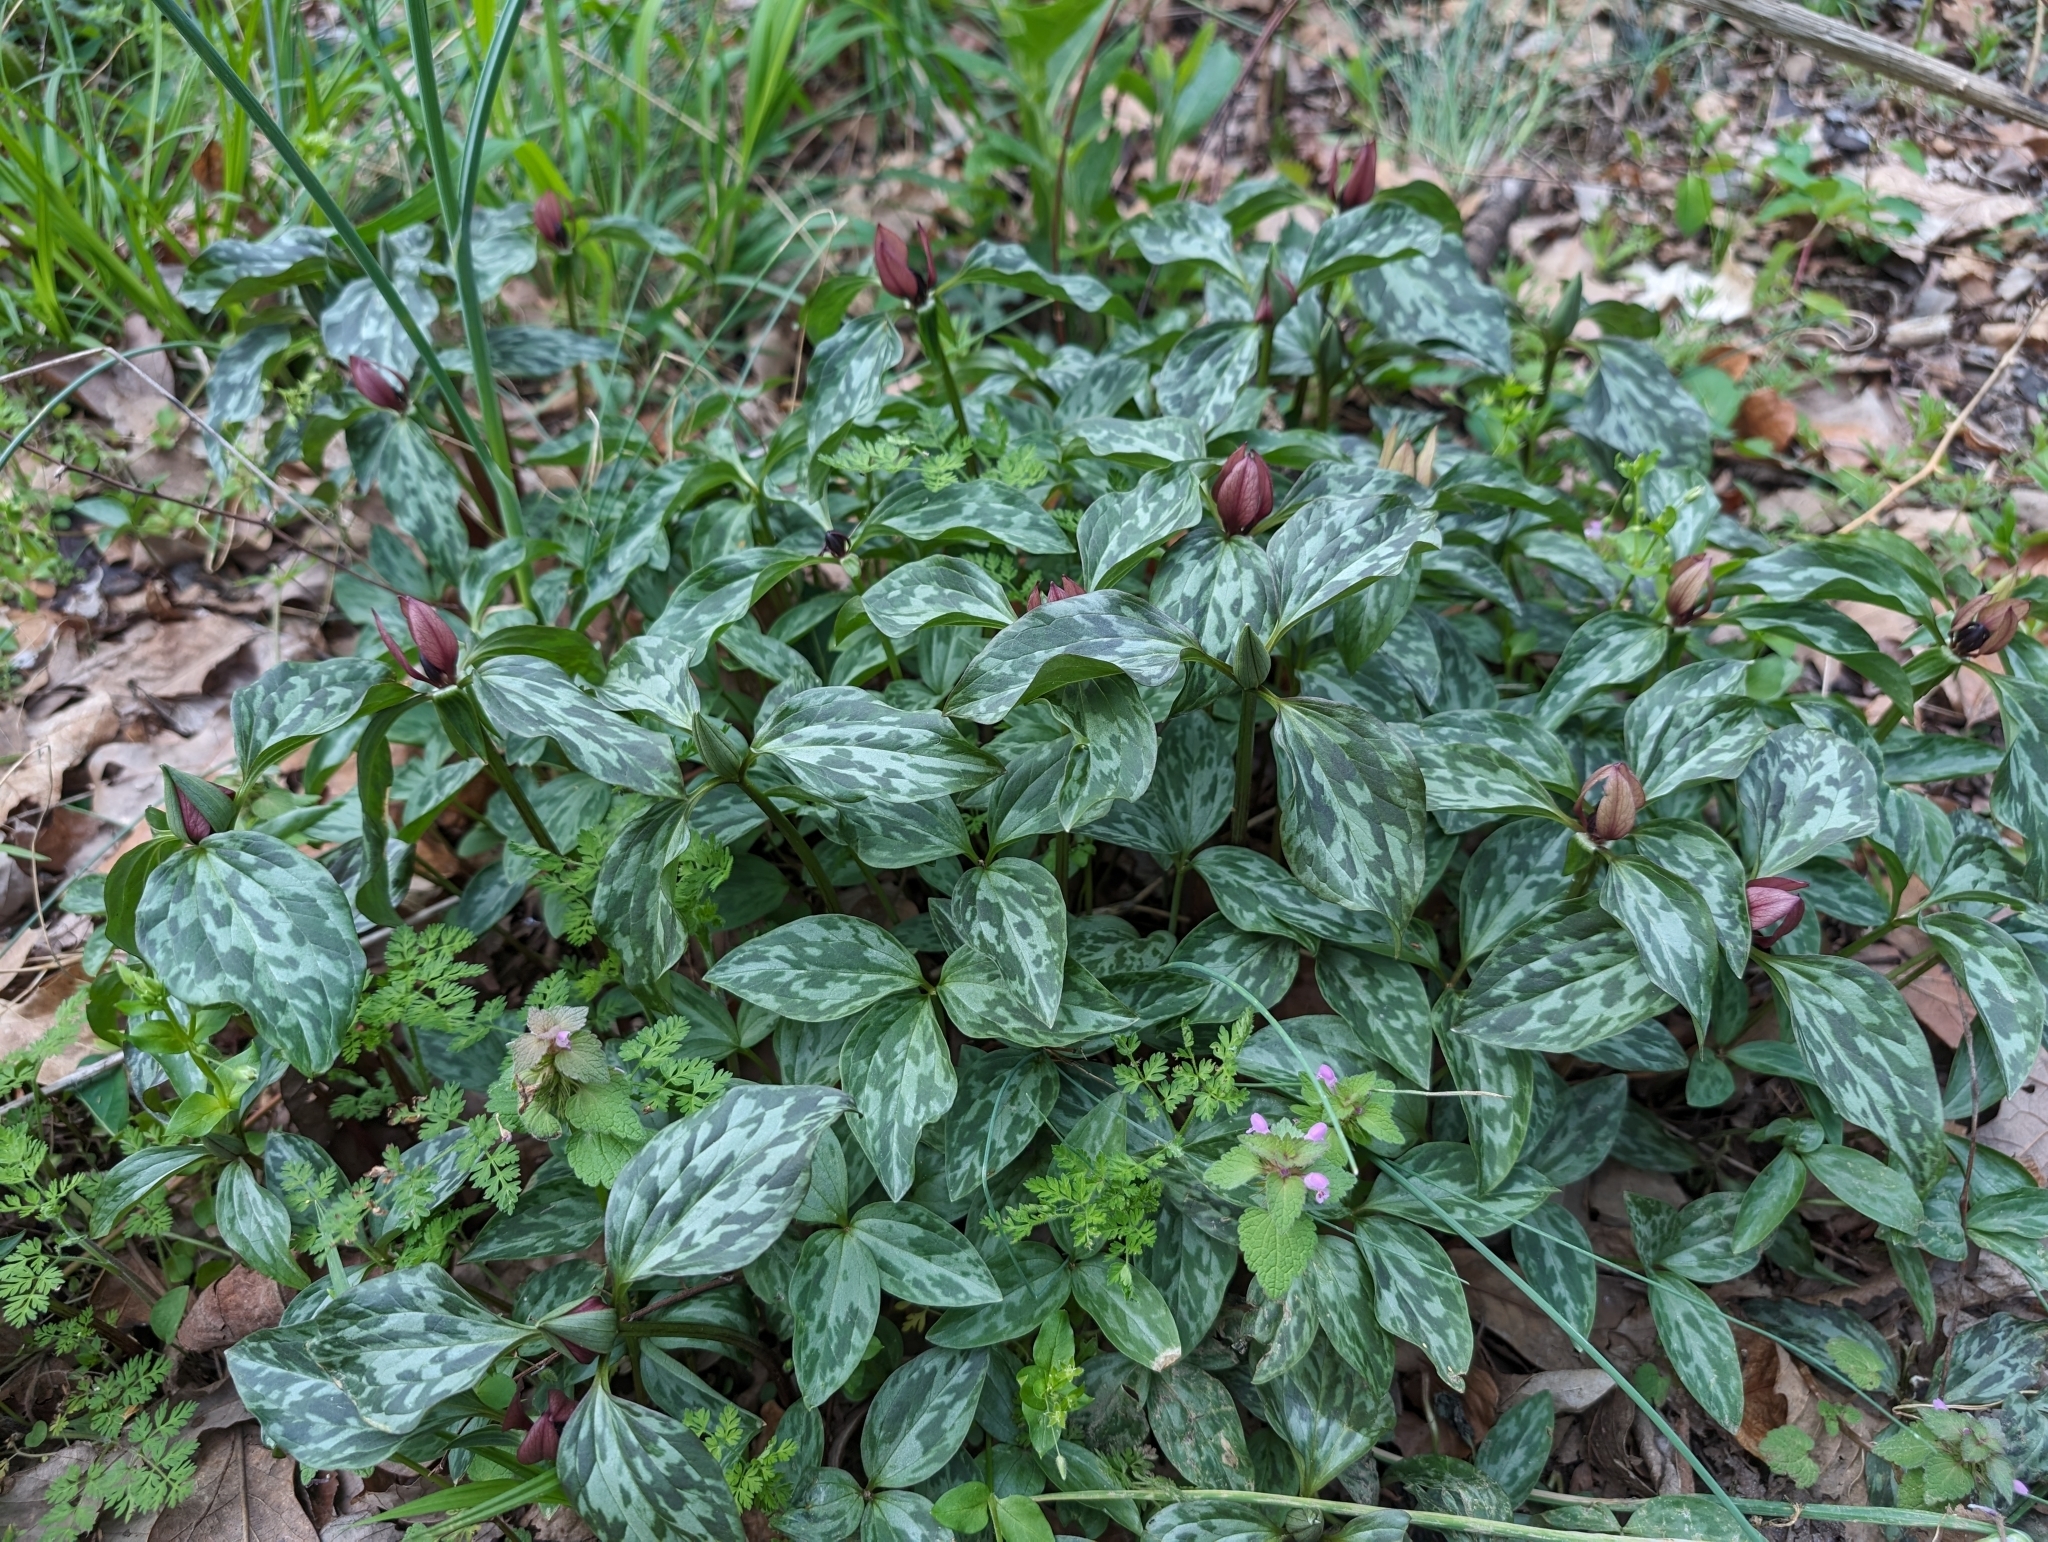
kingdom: Plantae
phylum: Tracheophyta
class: Liliopsida
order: Liliales
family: Melanthiaceae
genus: Trillium
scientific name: Trillium recurvatum
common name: Bloody butcher
